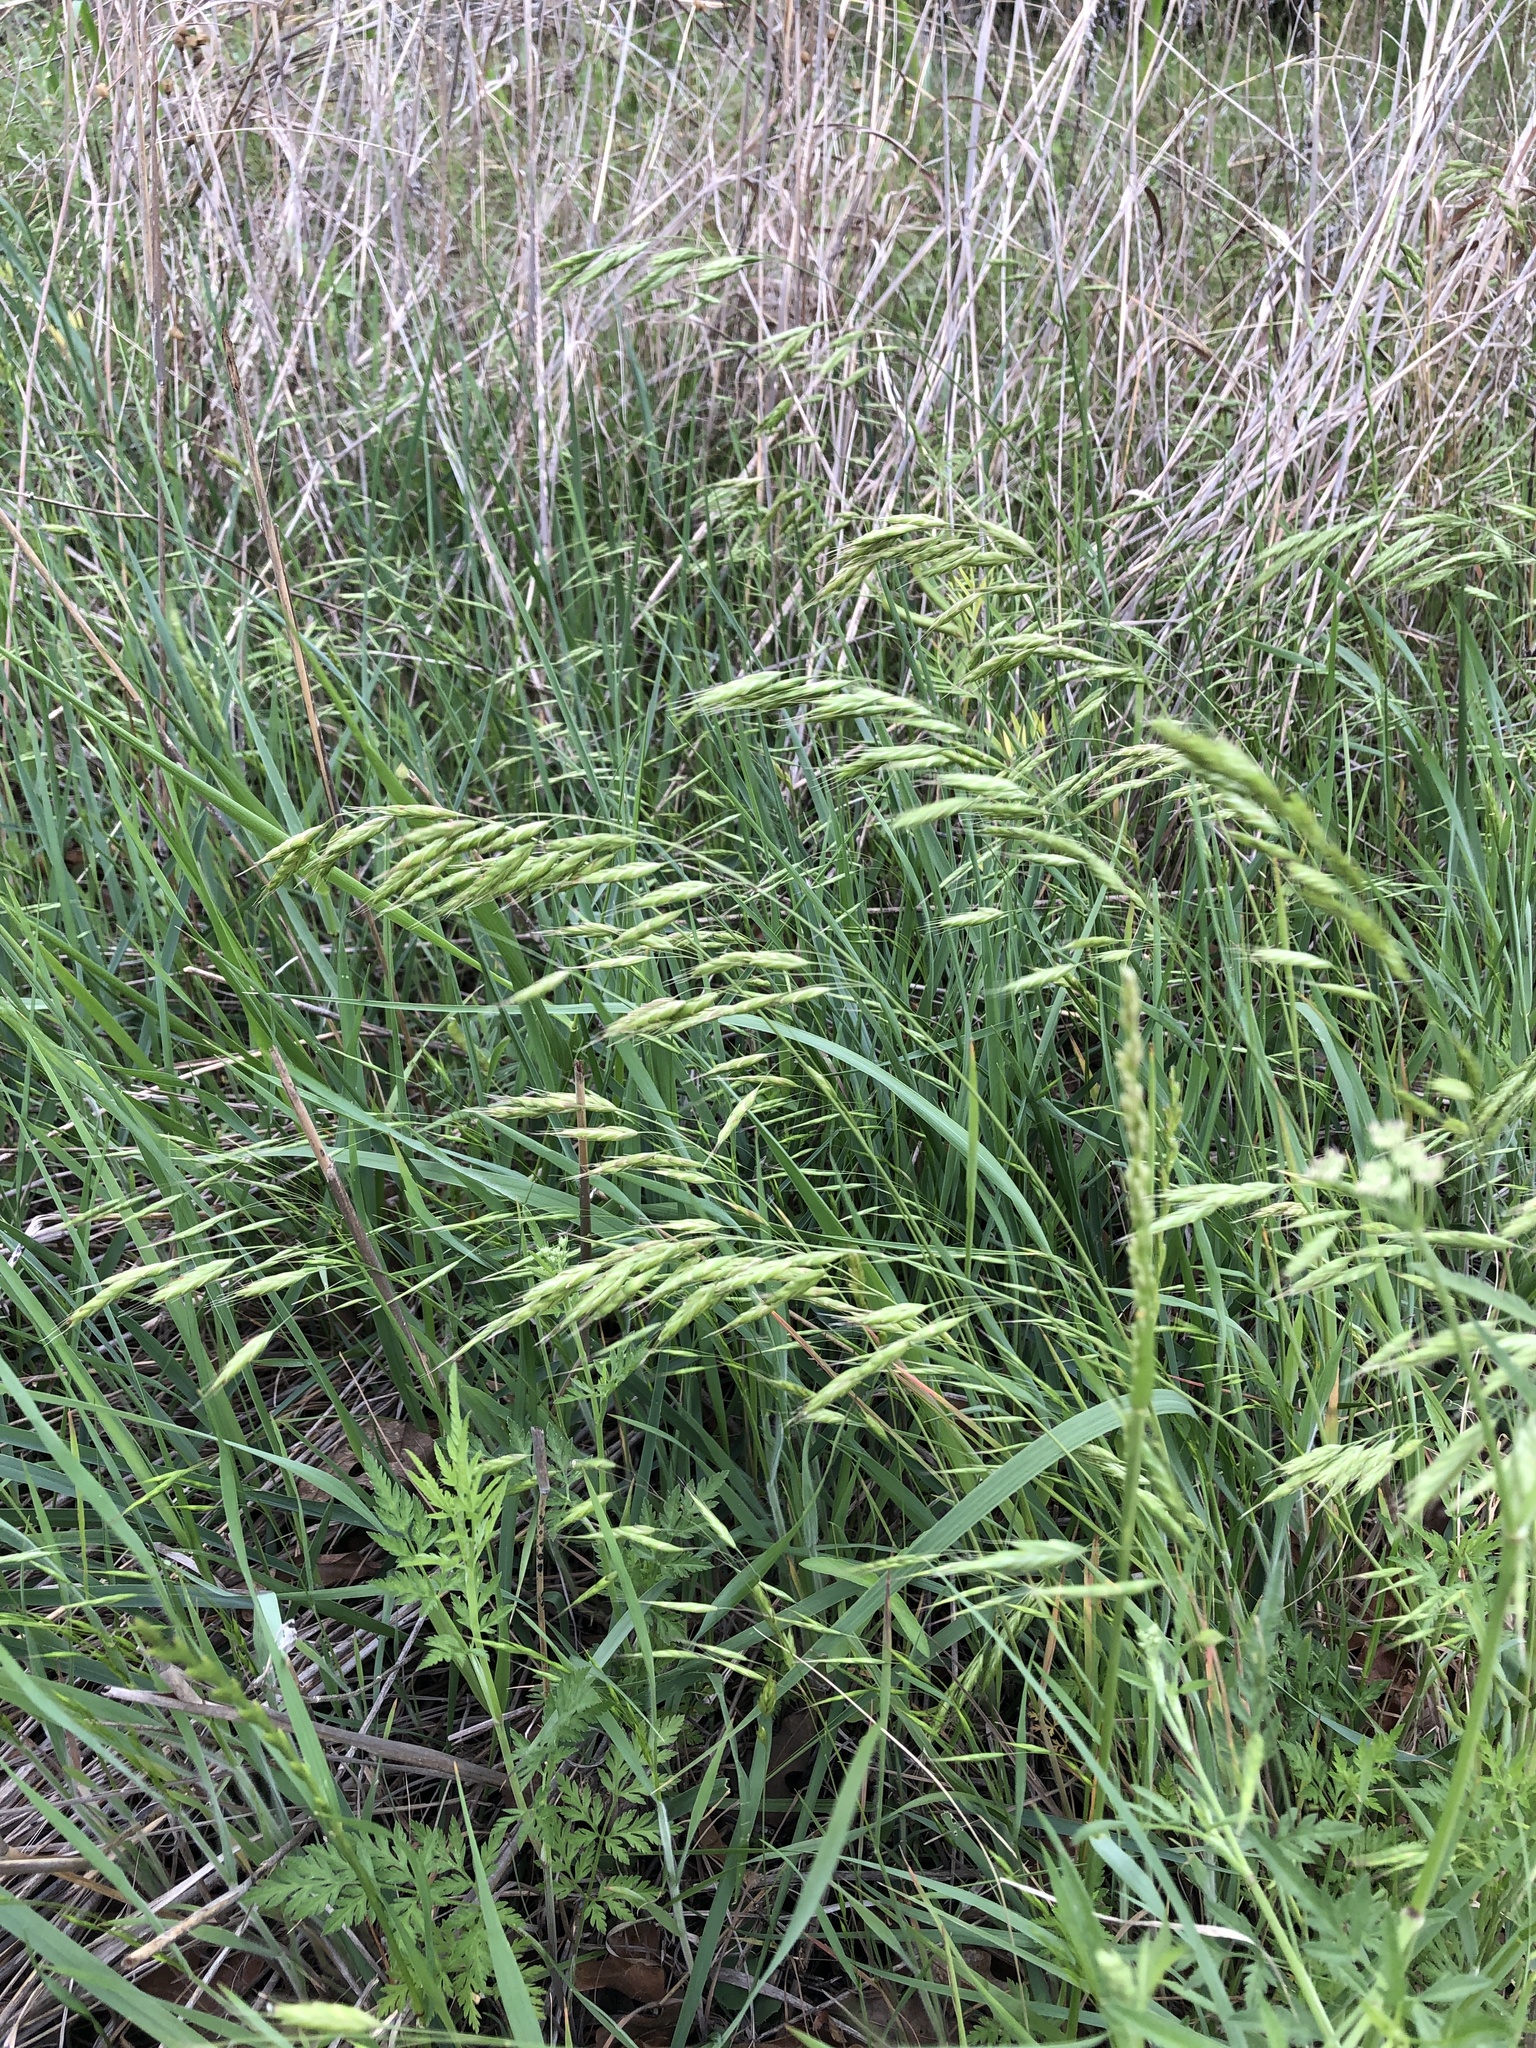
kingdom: Plantae
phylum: Tracheophyta
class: Liliopsida
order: Poales
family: Poaceae
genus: Bromus
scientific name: Bromus japonicus
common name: Japanese brome
